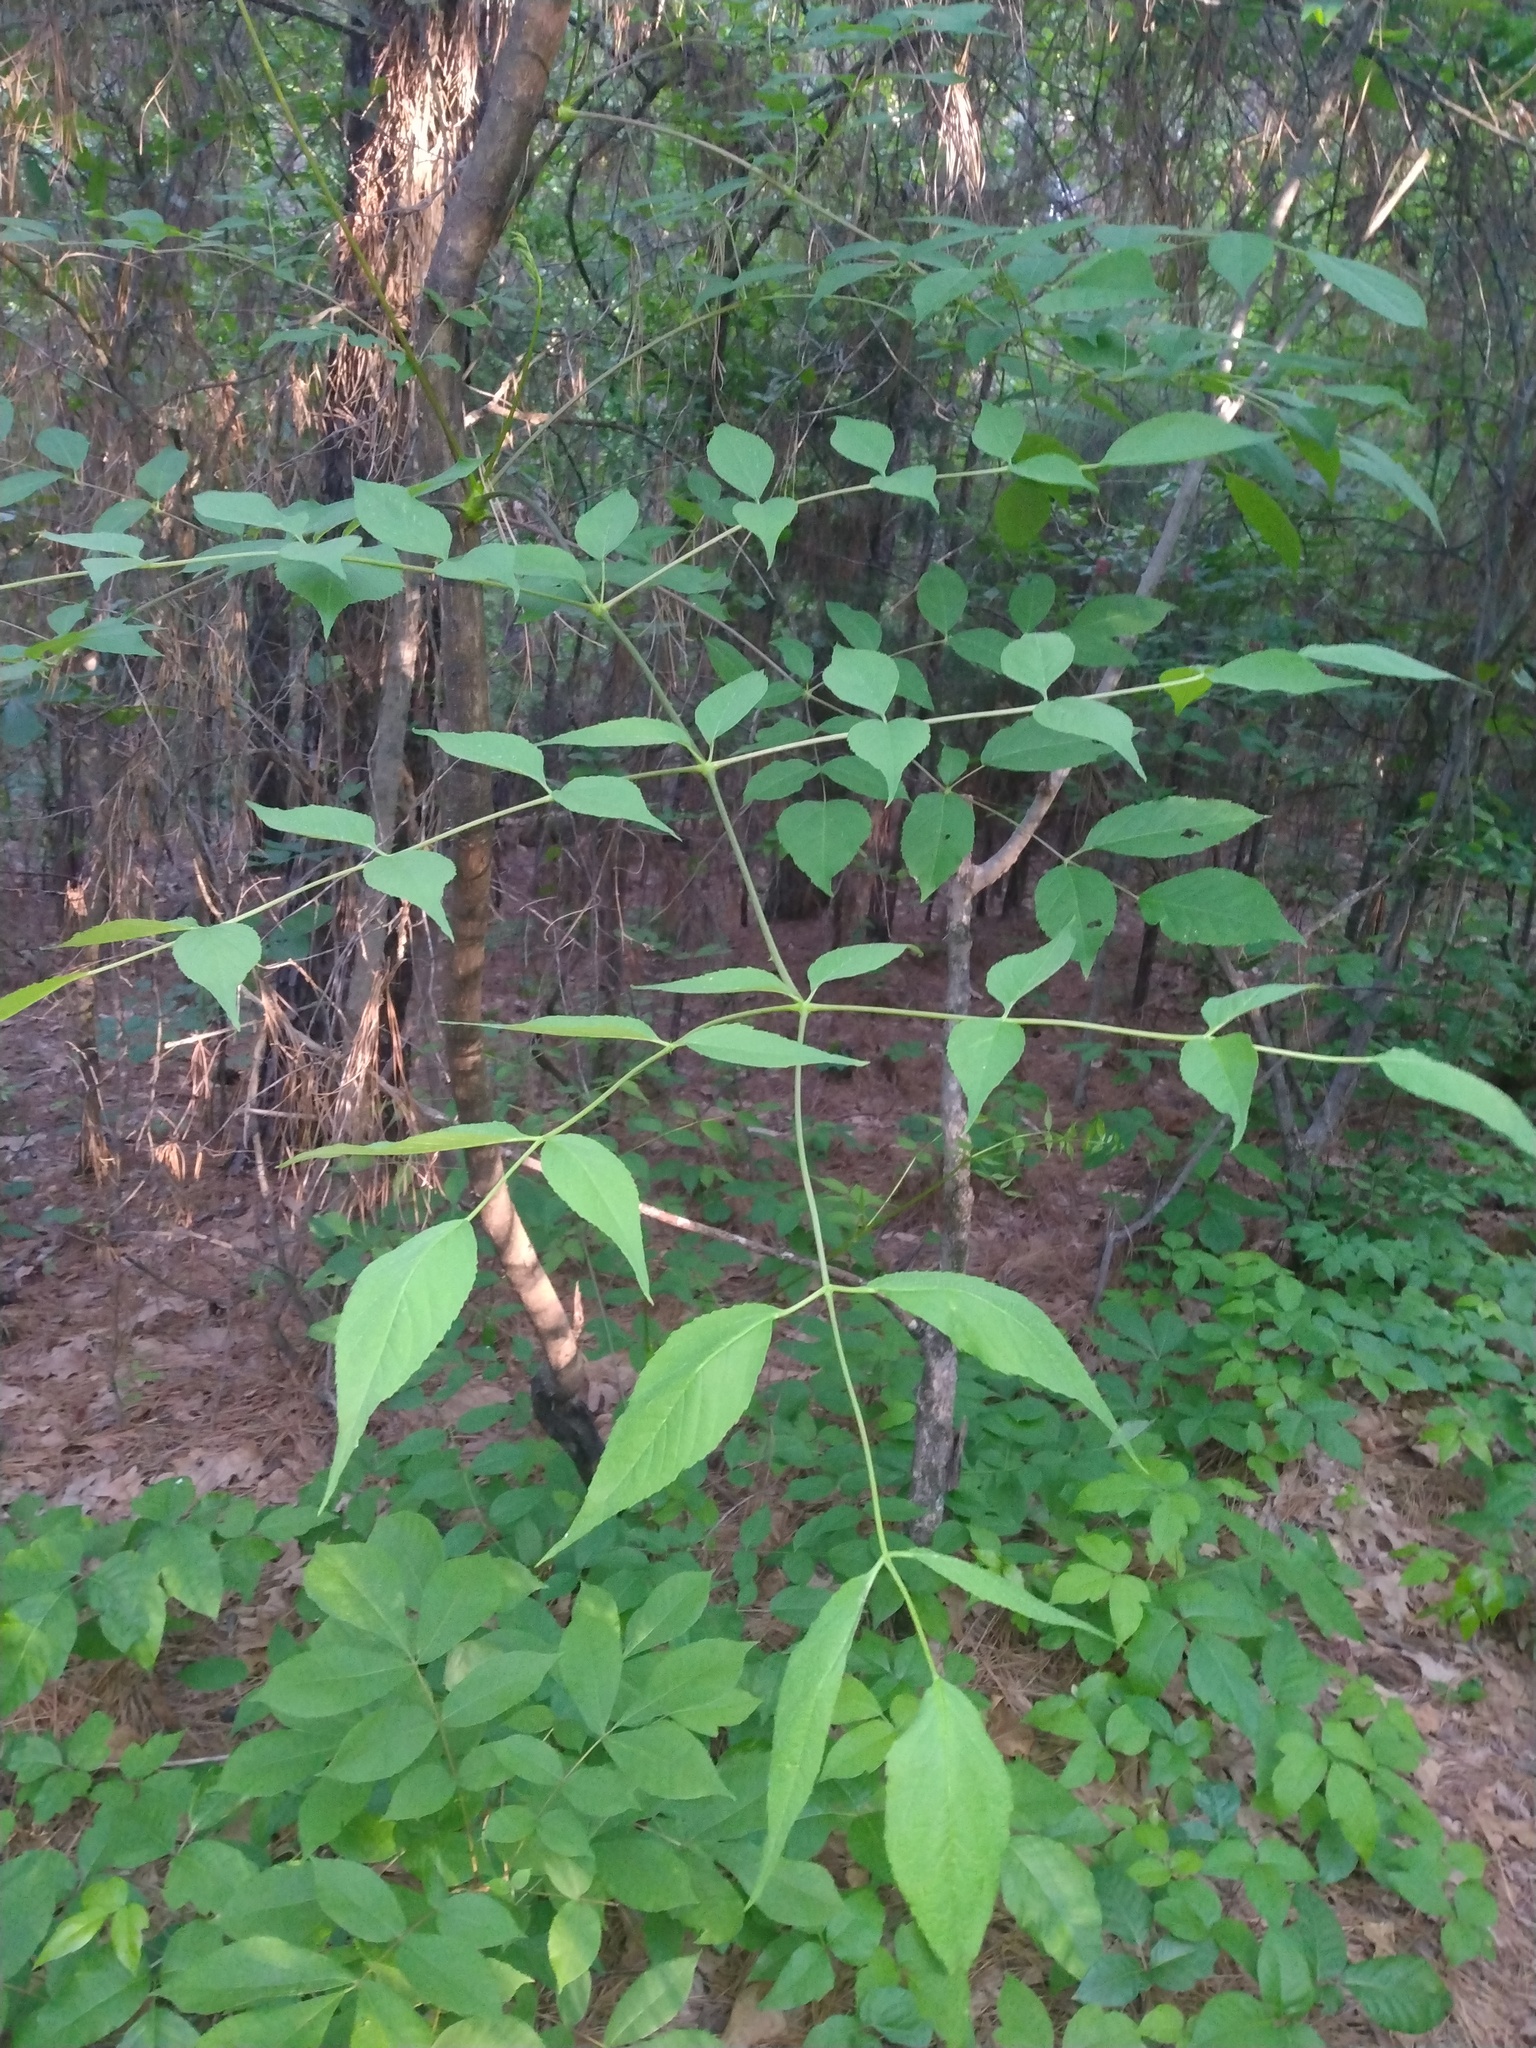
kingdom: Plantae
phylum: Tracheophyta
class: Magnoliopsida
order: Apiales
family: Araliaceae
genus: Aralia
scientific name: Aralia spinosa
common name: Hercules'-club
